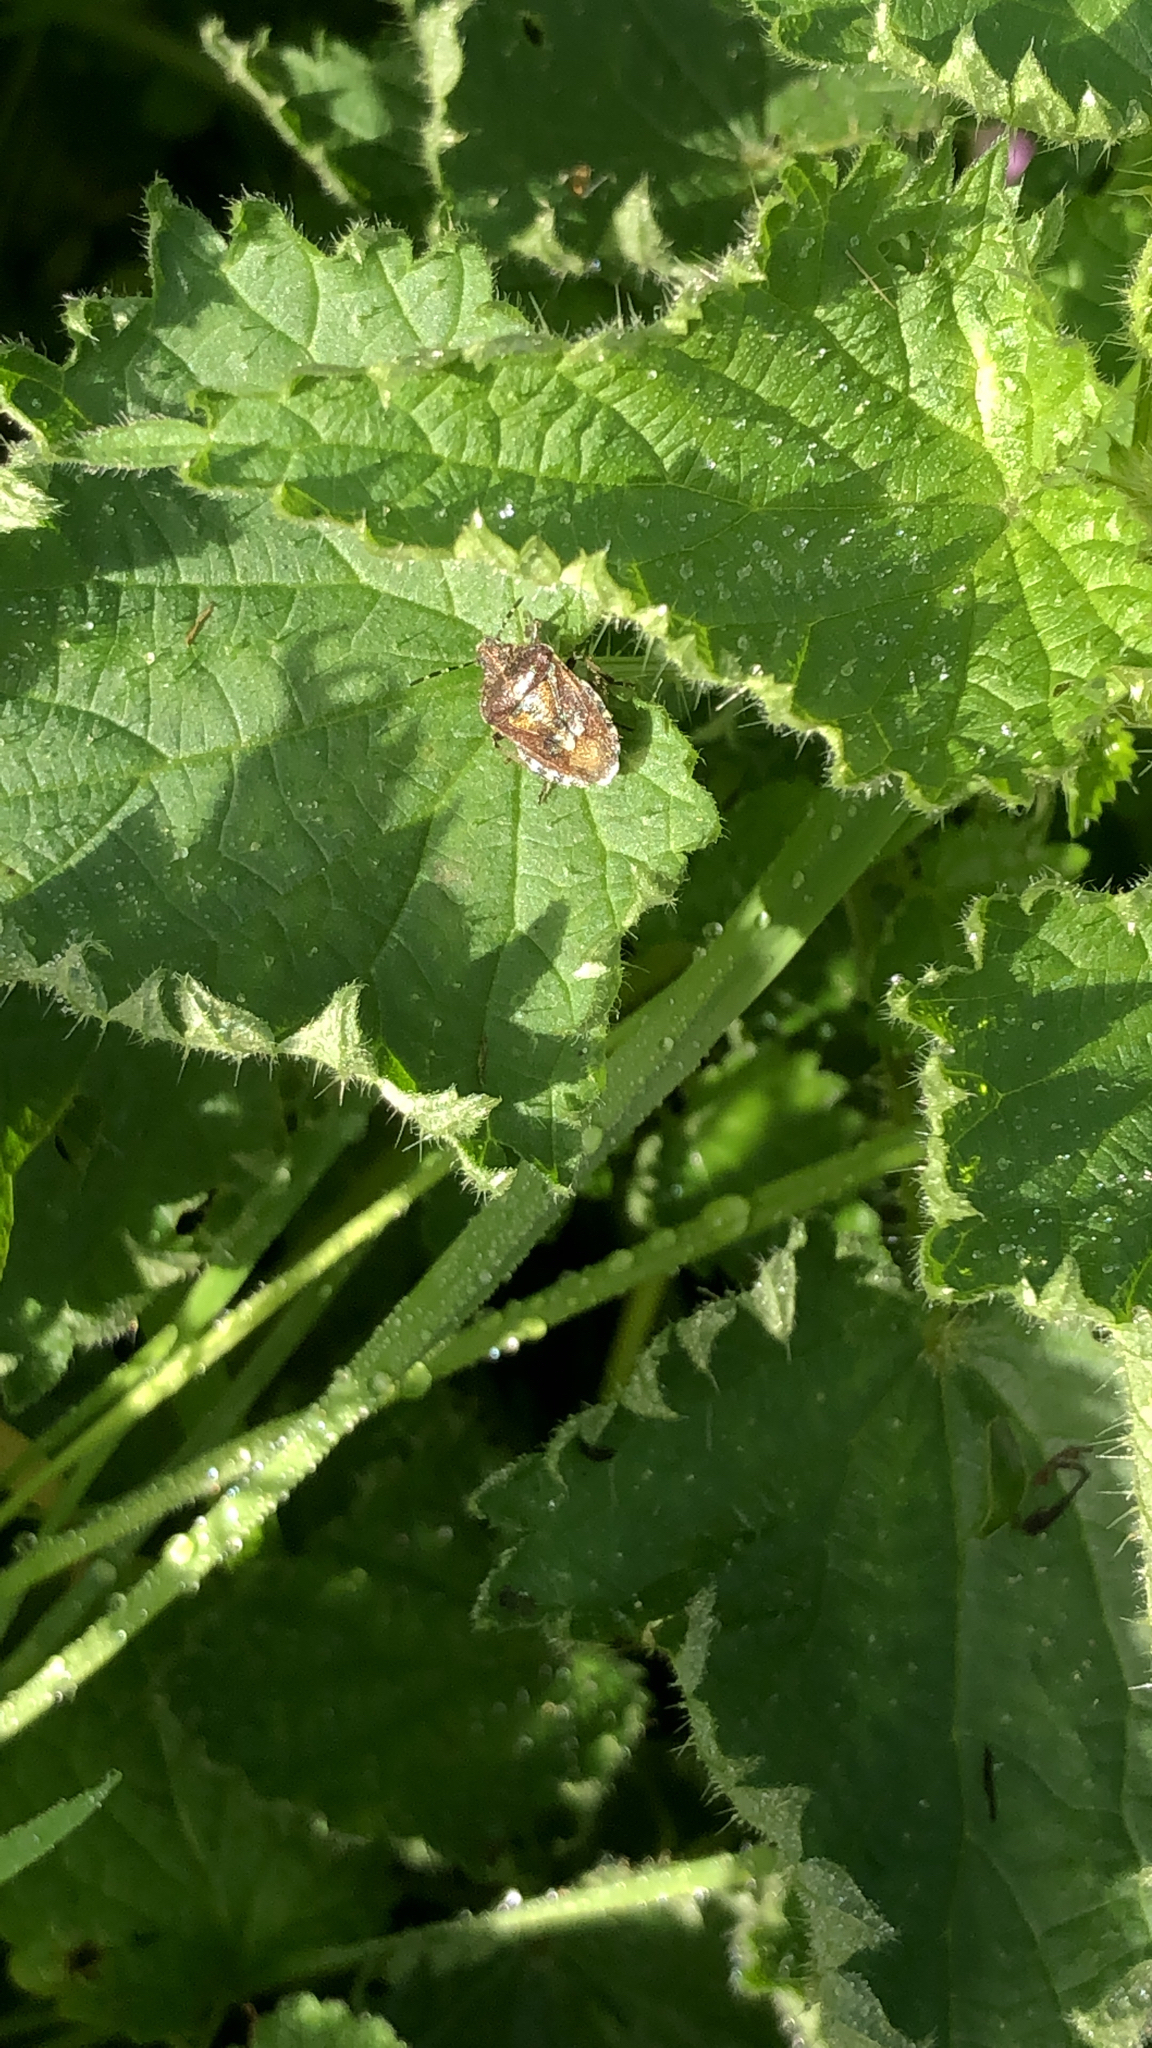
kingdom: Animalia
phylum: Arthropoda
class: Insecta
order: Hemiptera
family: Pentatomidae
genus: Dolycoris
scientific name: Dolycoris baccarum
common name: Sloe bug
